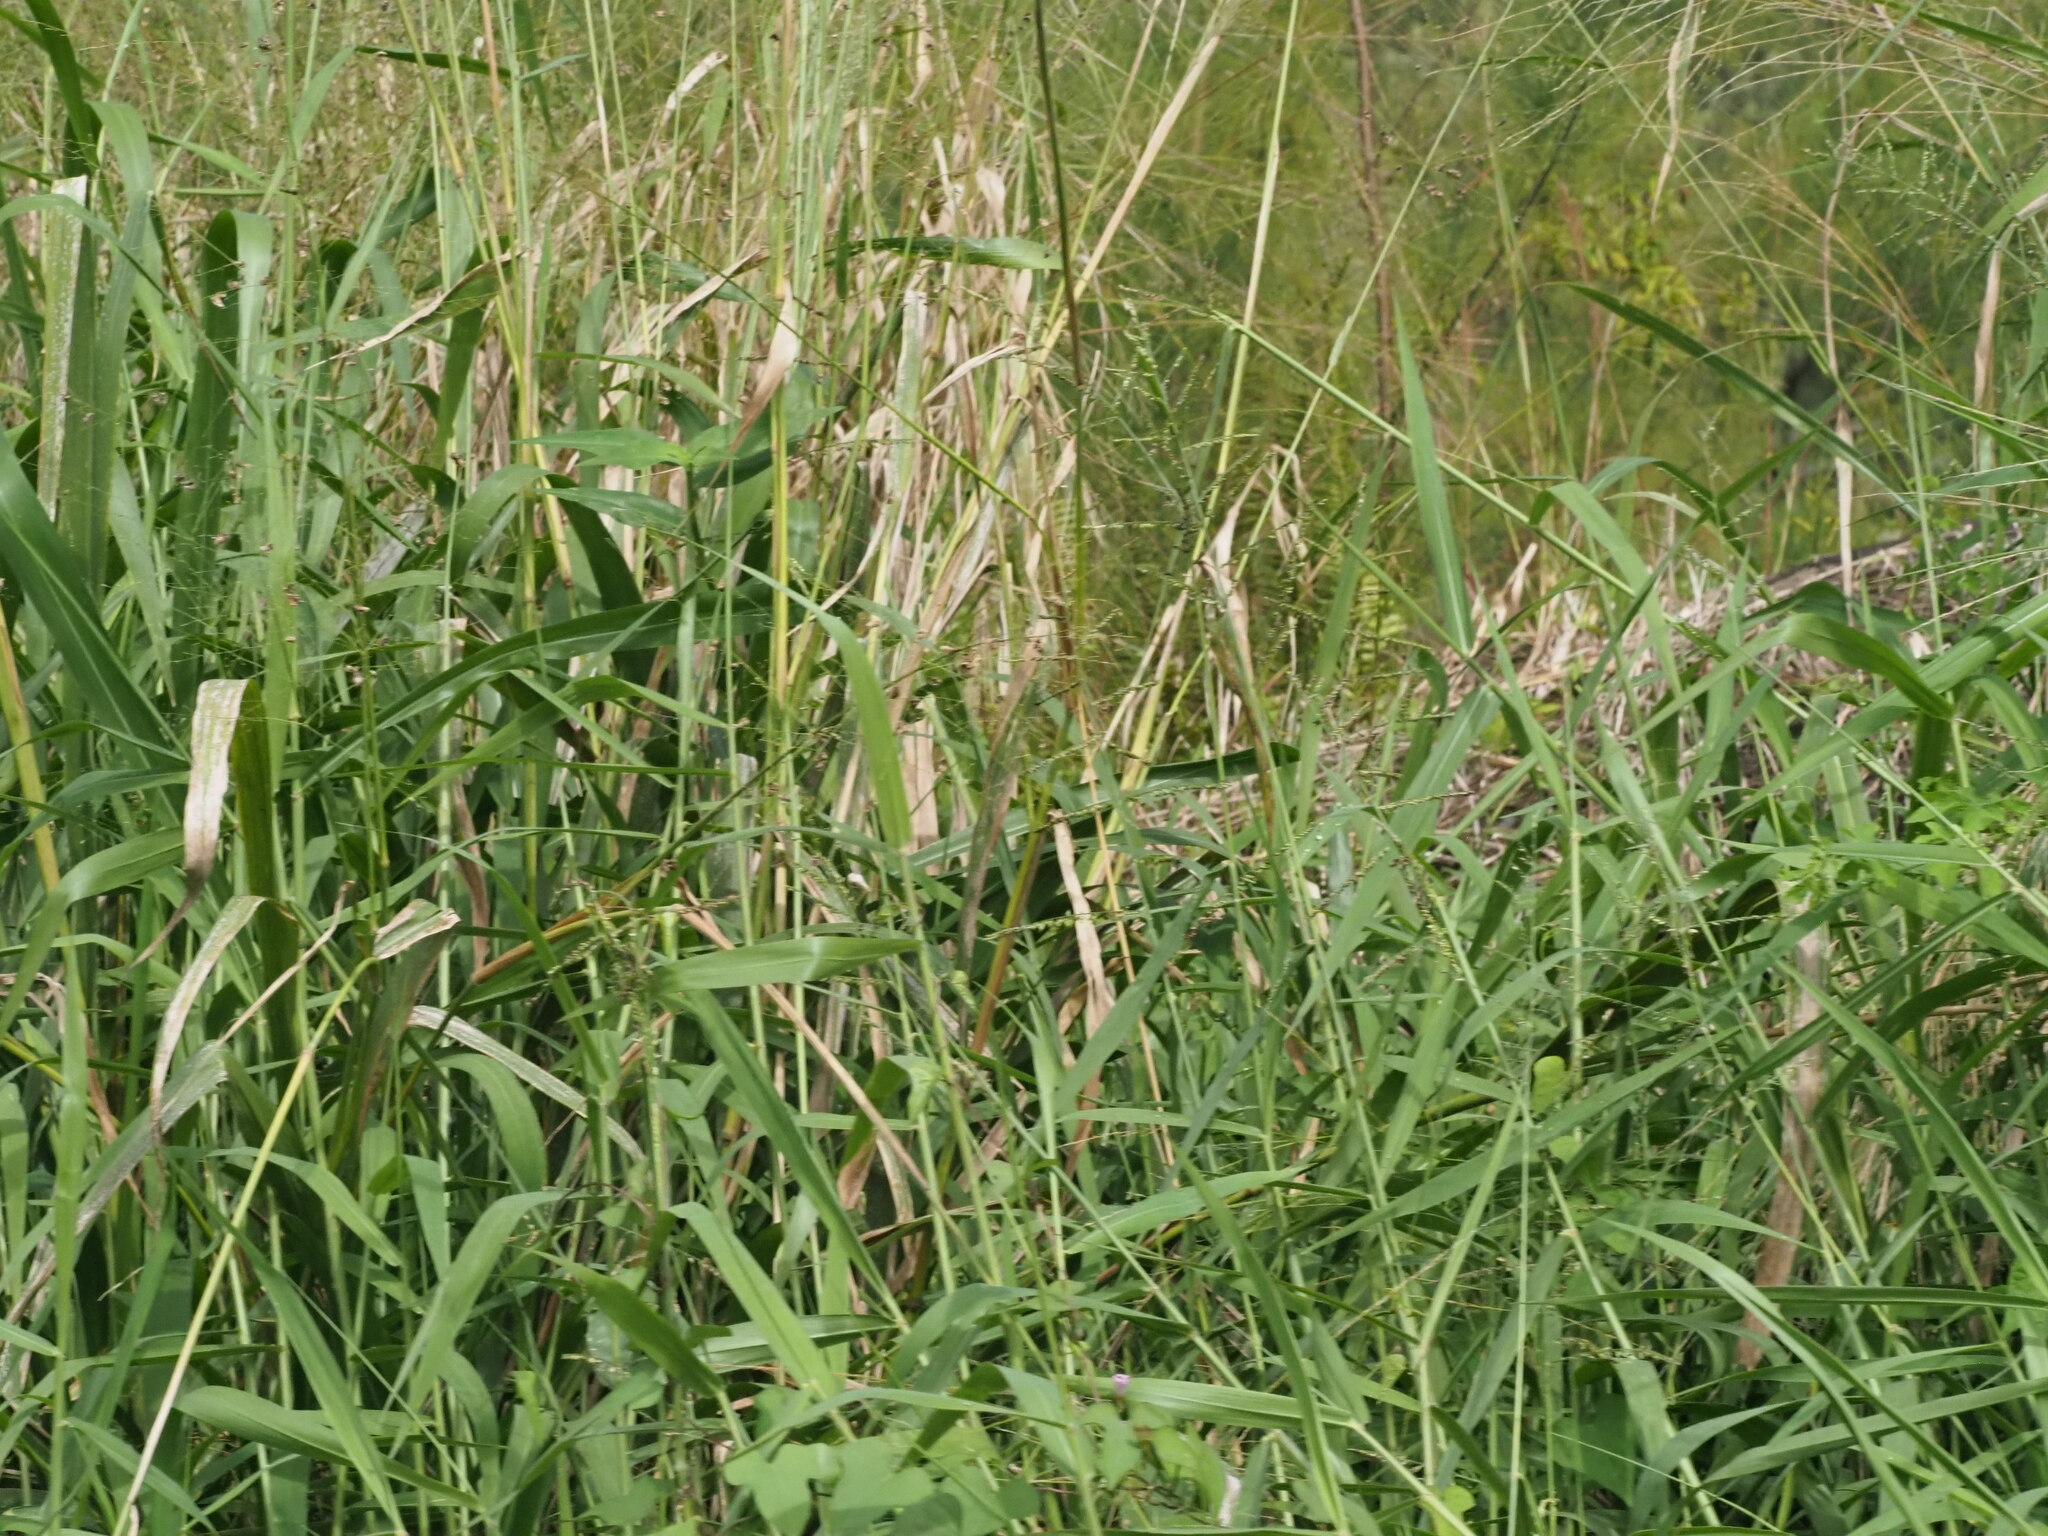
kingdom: Plantae
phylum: Tracheophyta
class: Liliopsida
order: Poales
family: Poaceae
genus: Urochloa
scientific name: Urochloa mutica
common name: Para grass
